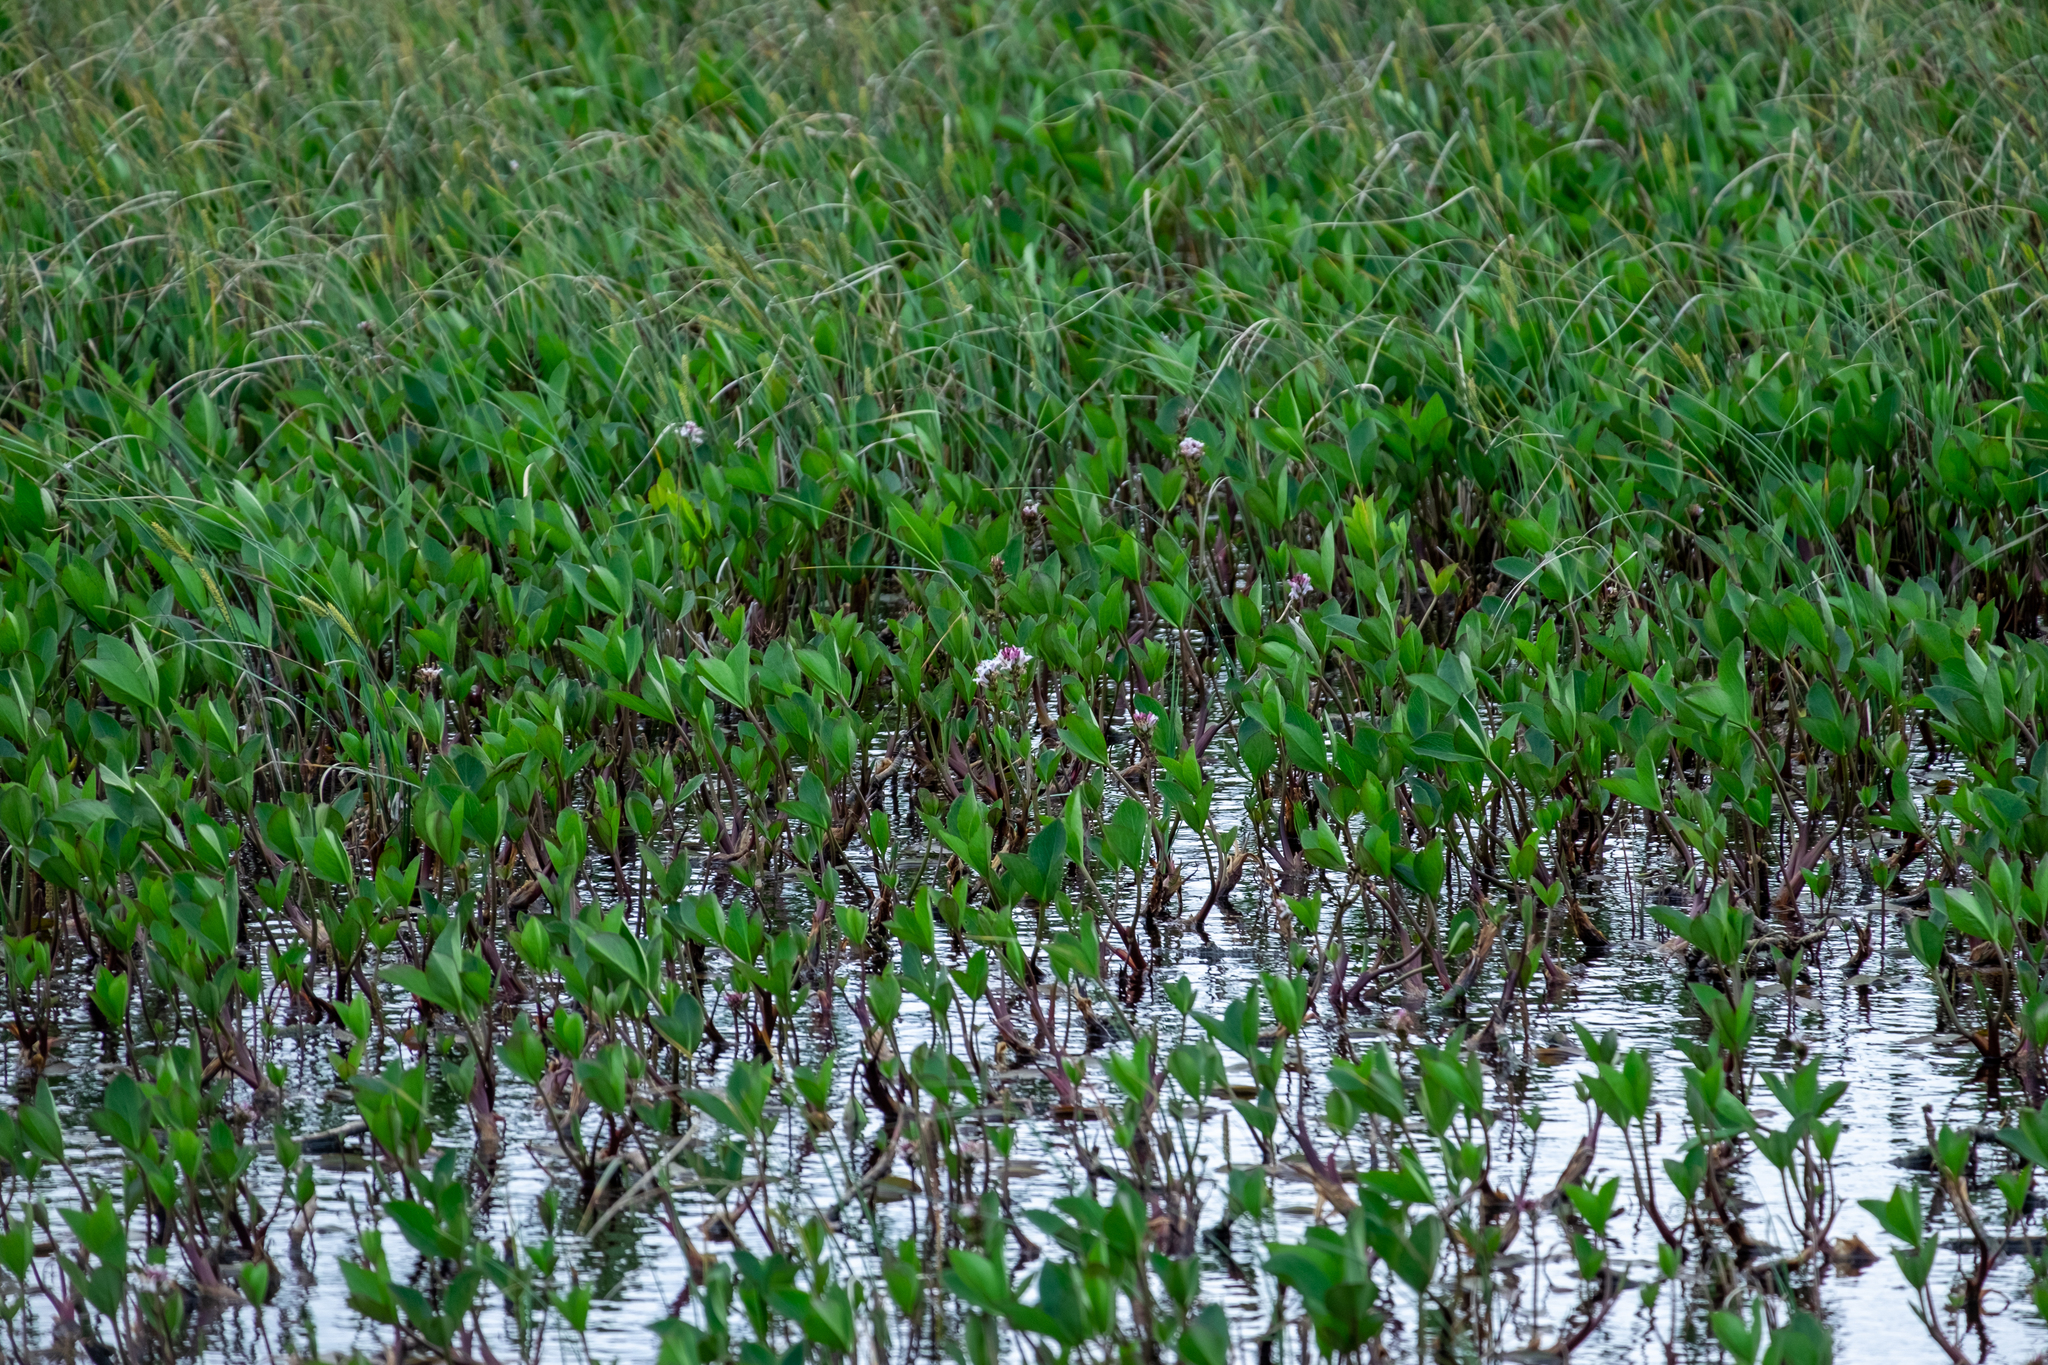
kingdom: Plantae
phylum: Tracheophyta
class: Magnoliopsida
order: Asterales
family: Menyanthaceae
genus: Menyanthes
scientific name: Menyanthes trifoliata
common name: Bogbean
